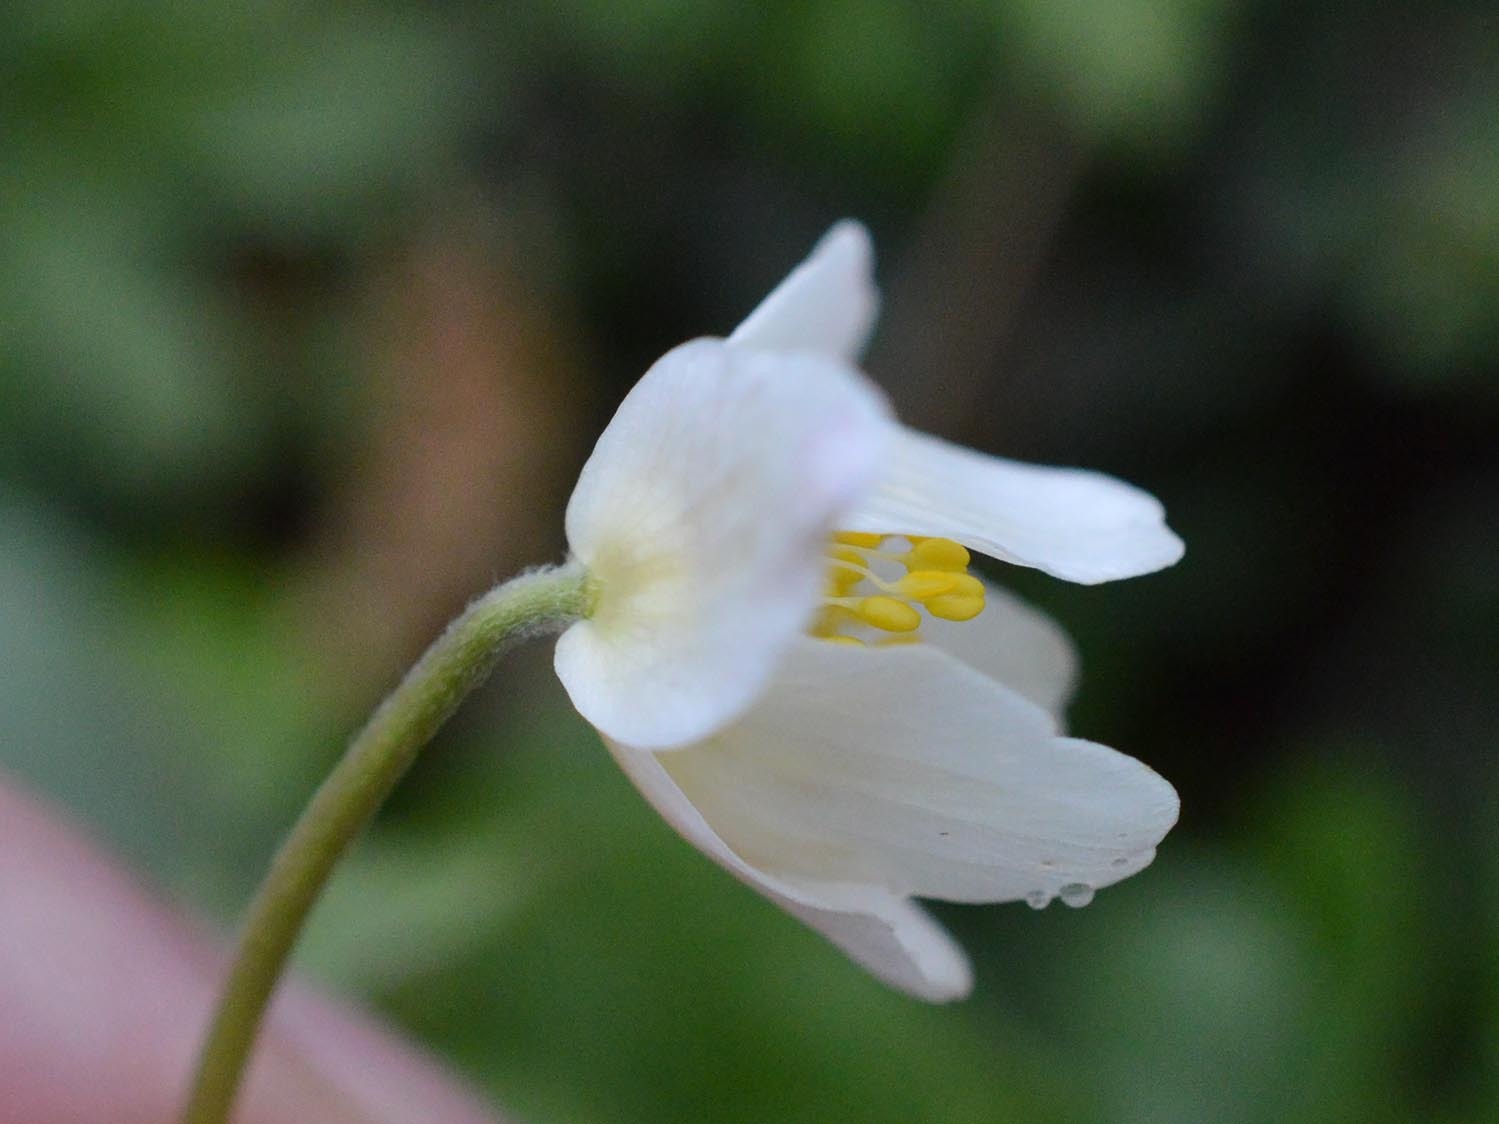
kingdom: Plantae
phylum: Tracheophyta
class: Magnoliopsida
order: Ranunculales
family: Ranunculaceae
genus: Anemone
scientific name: Anemone nemorosa
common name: Wood anemone
